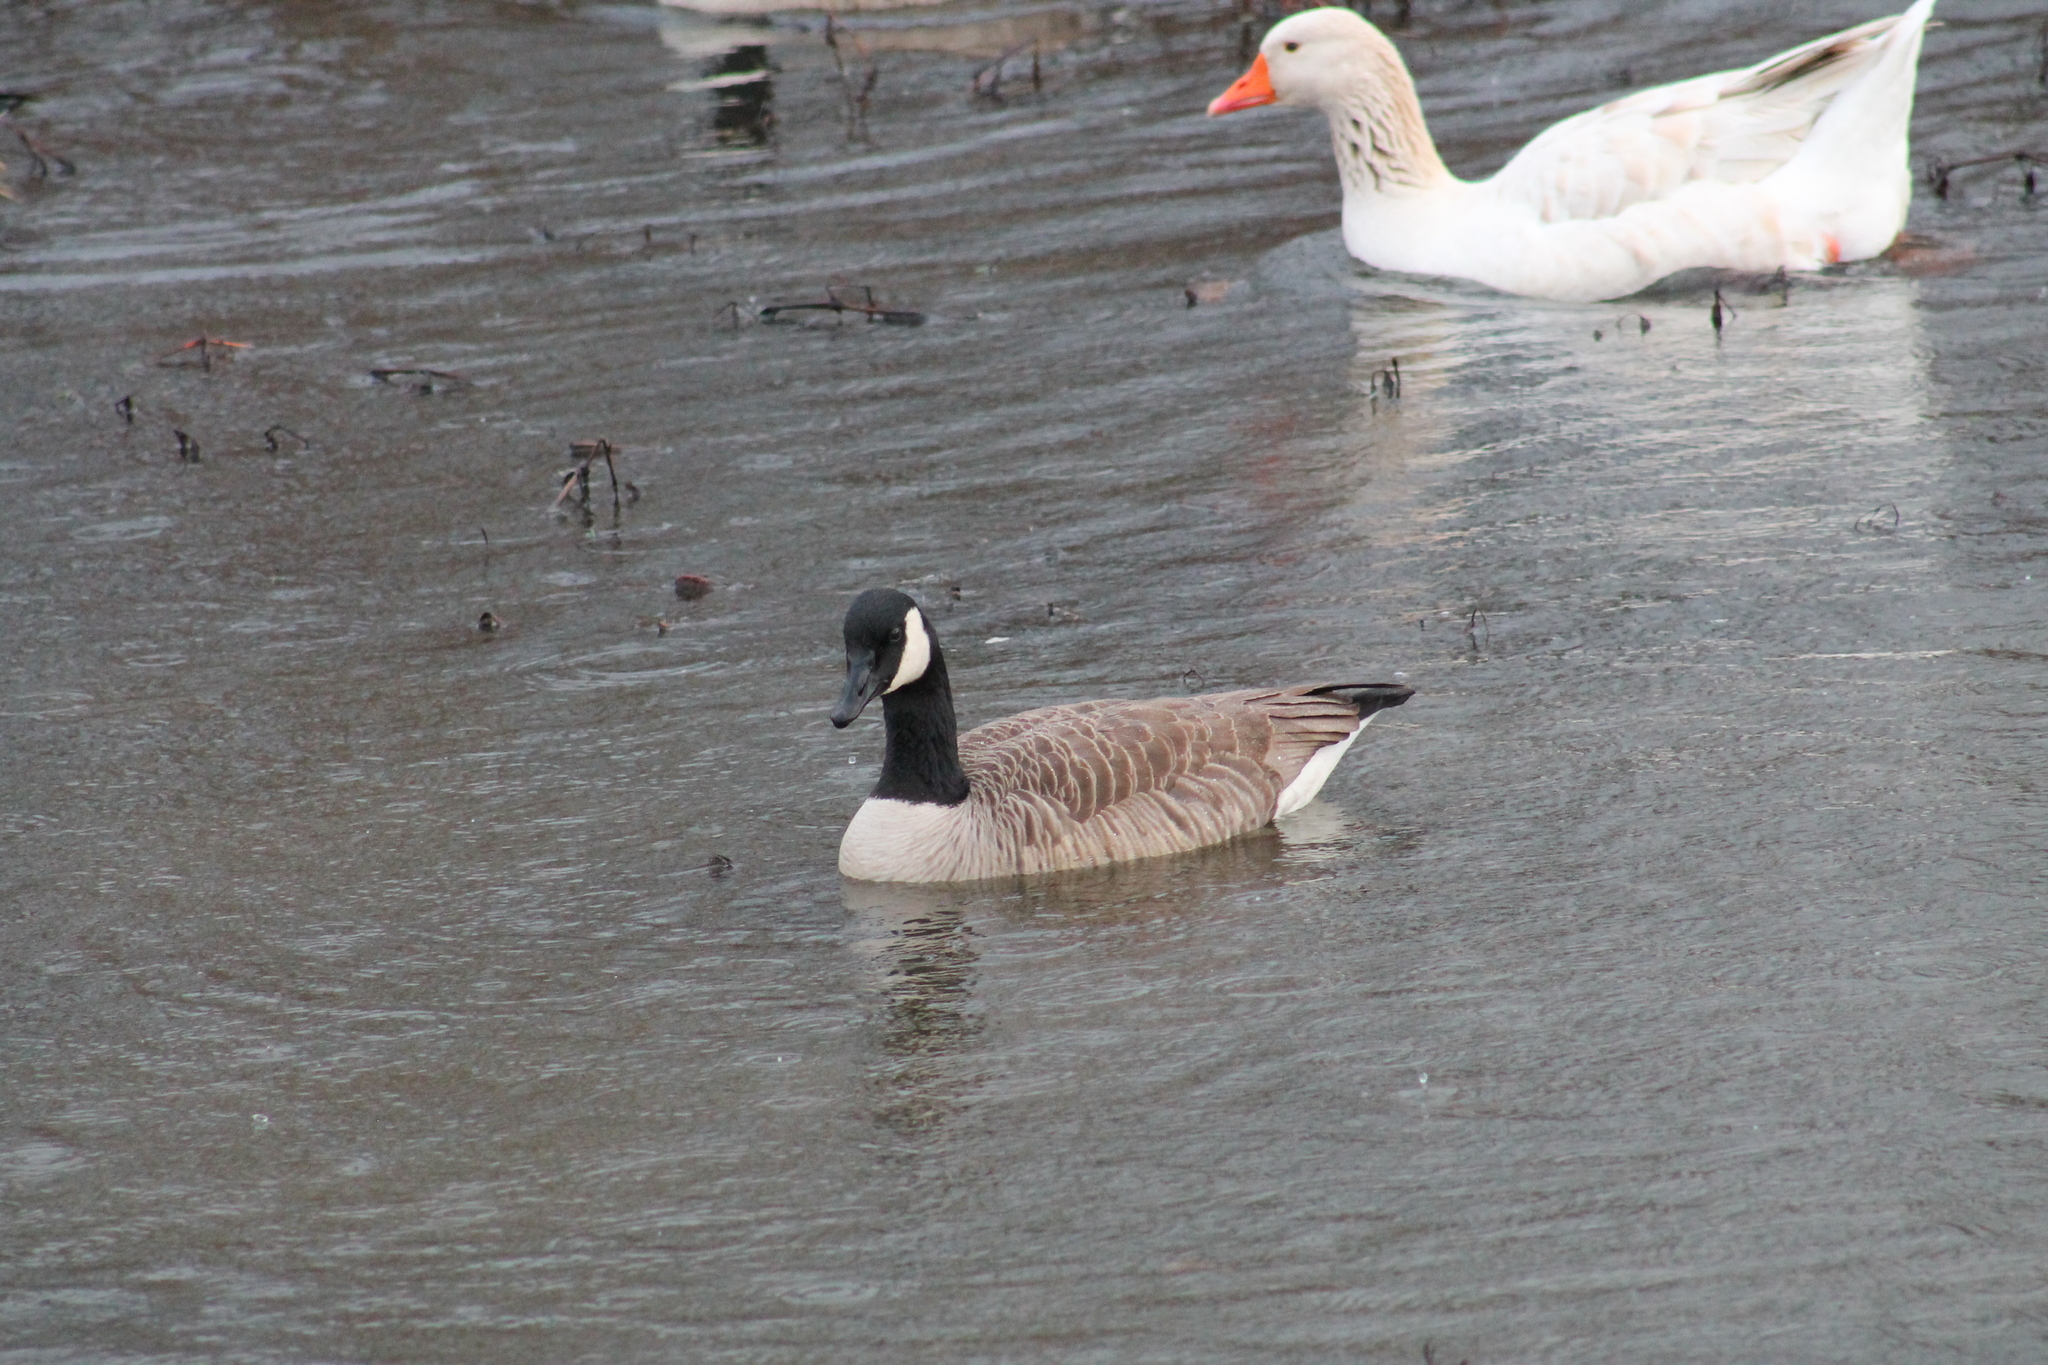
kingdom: Animalia
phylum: Chordata
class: Aves
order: Anseriformes
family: Anatidae
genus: Branta
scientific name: Branta canadensis
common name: Canada goose
